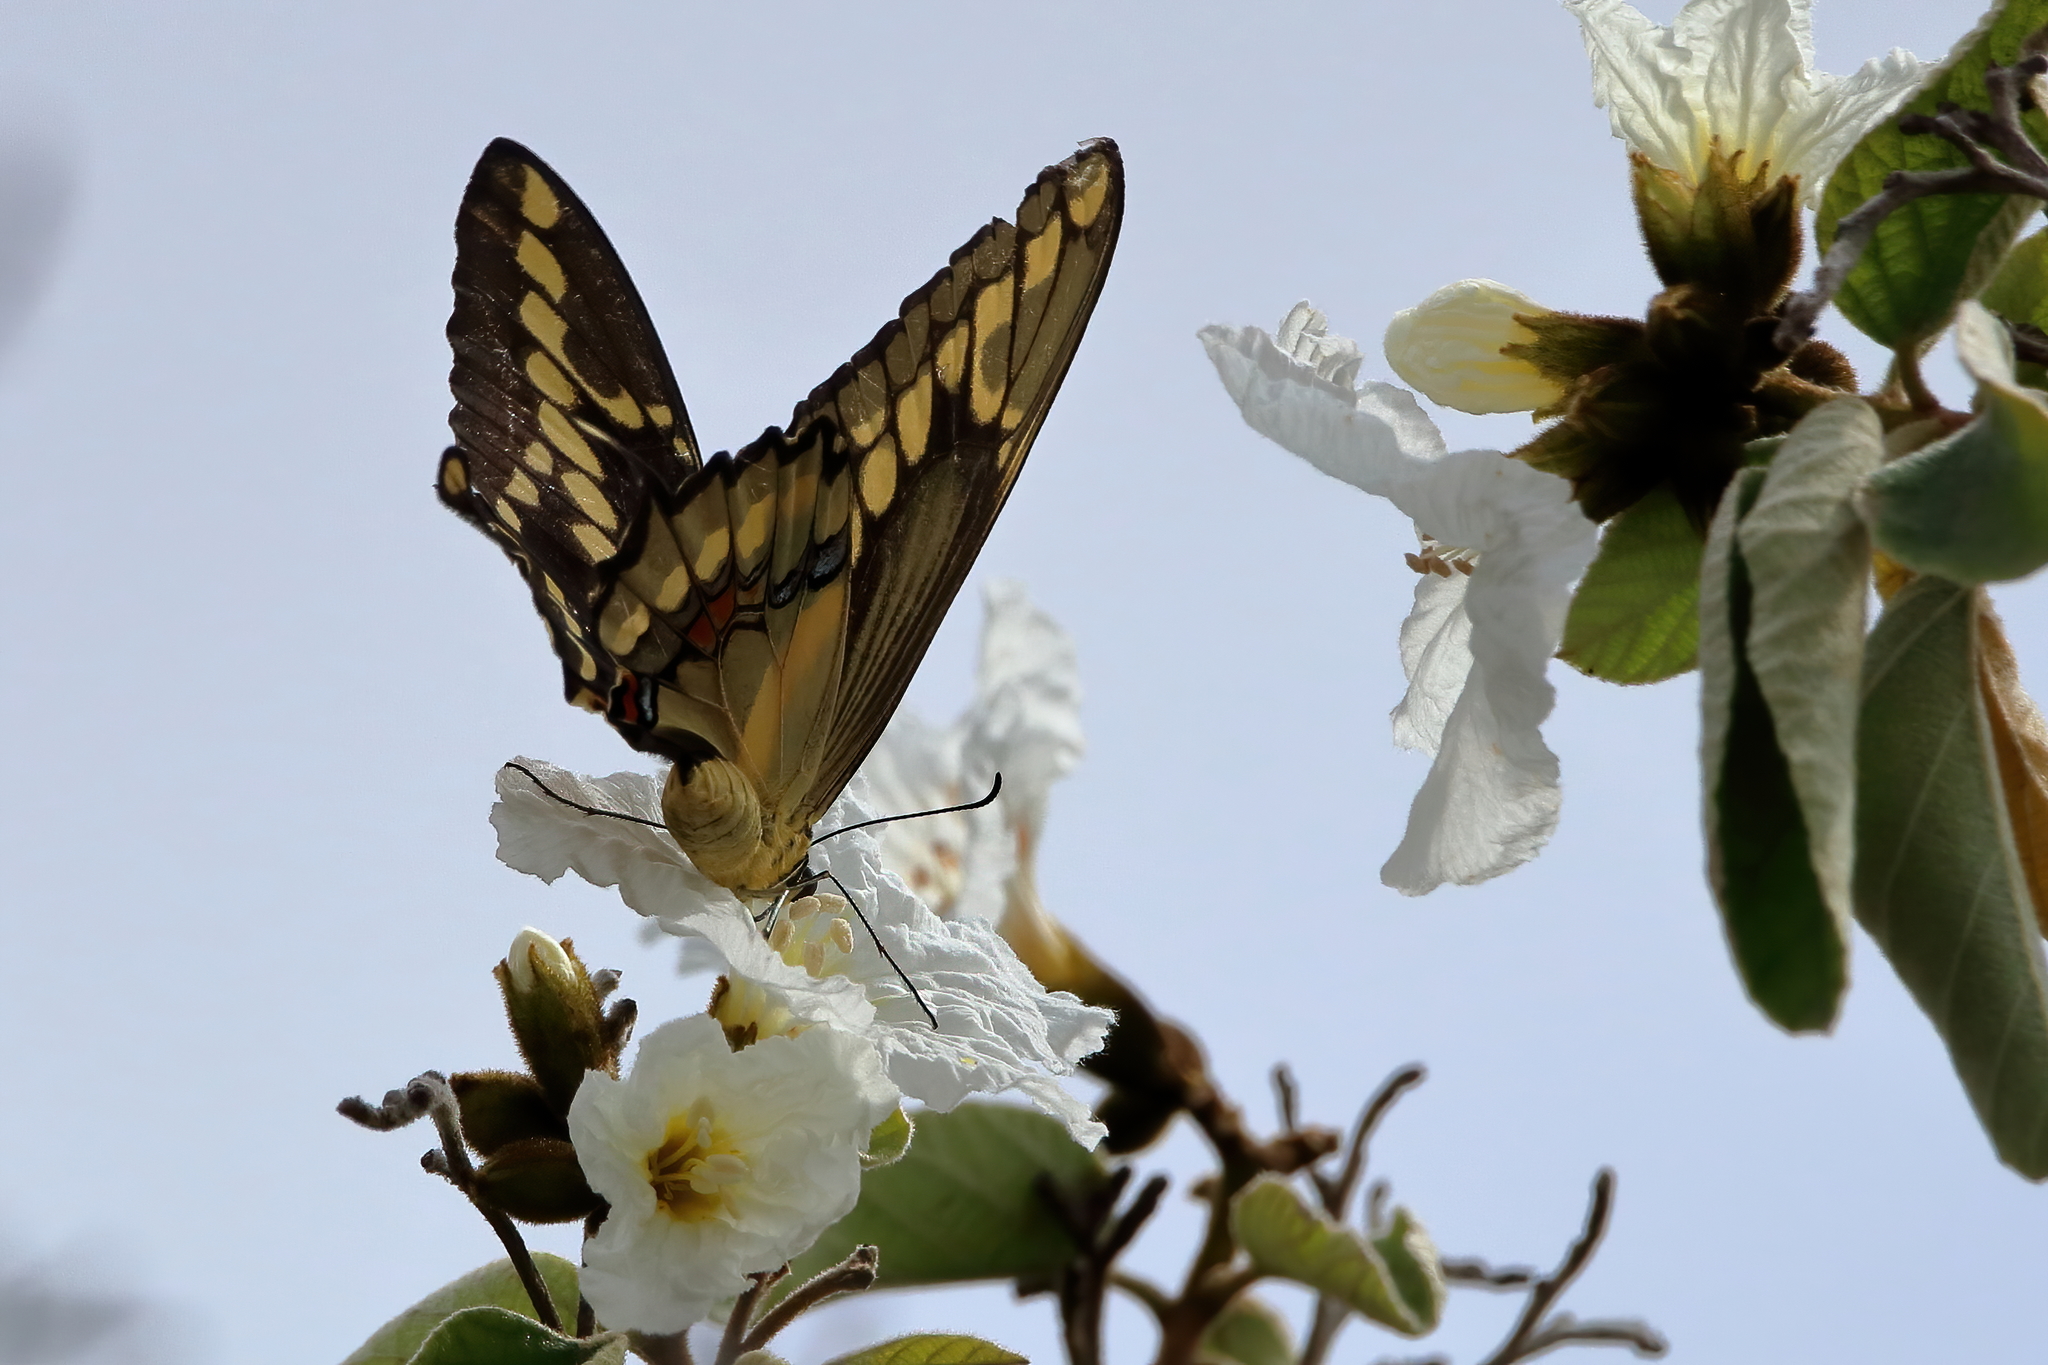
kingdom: Animalia
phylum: Arthropoda
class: Insecta
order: Lepidoptera
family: Papilionidae
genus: Papilio
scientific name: Papilio rumiko
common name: Western giant swallowtail
